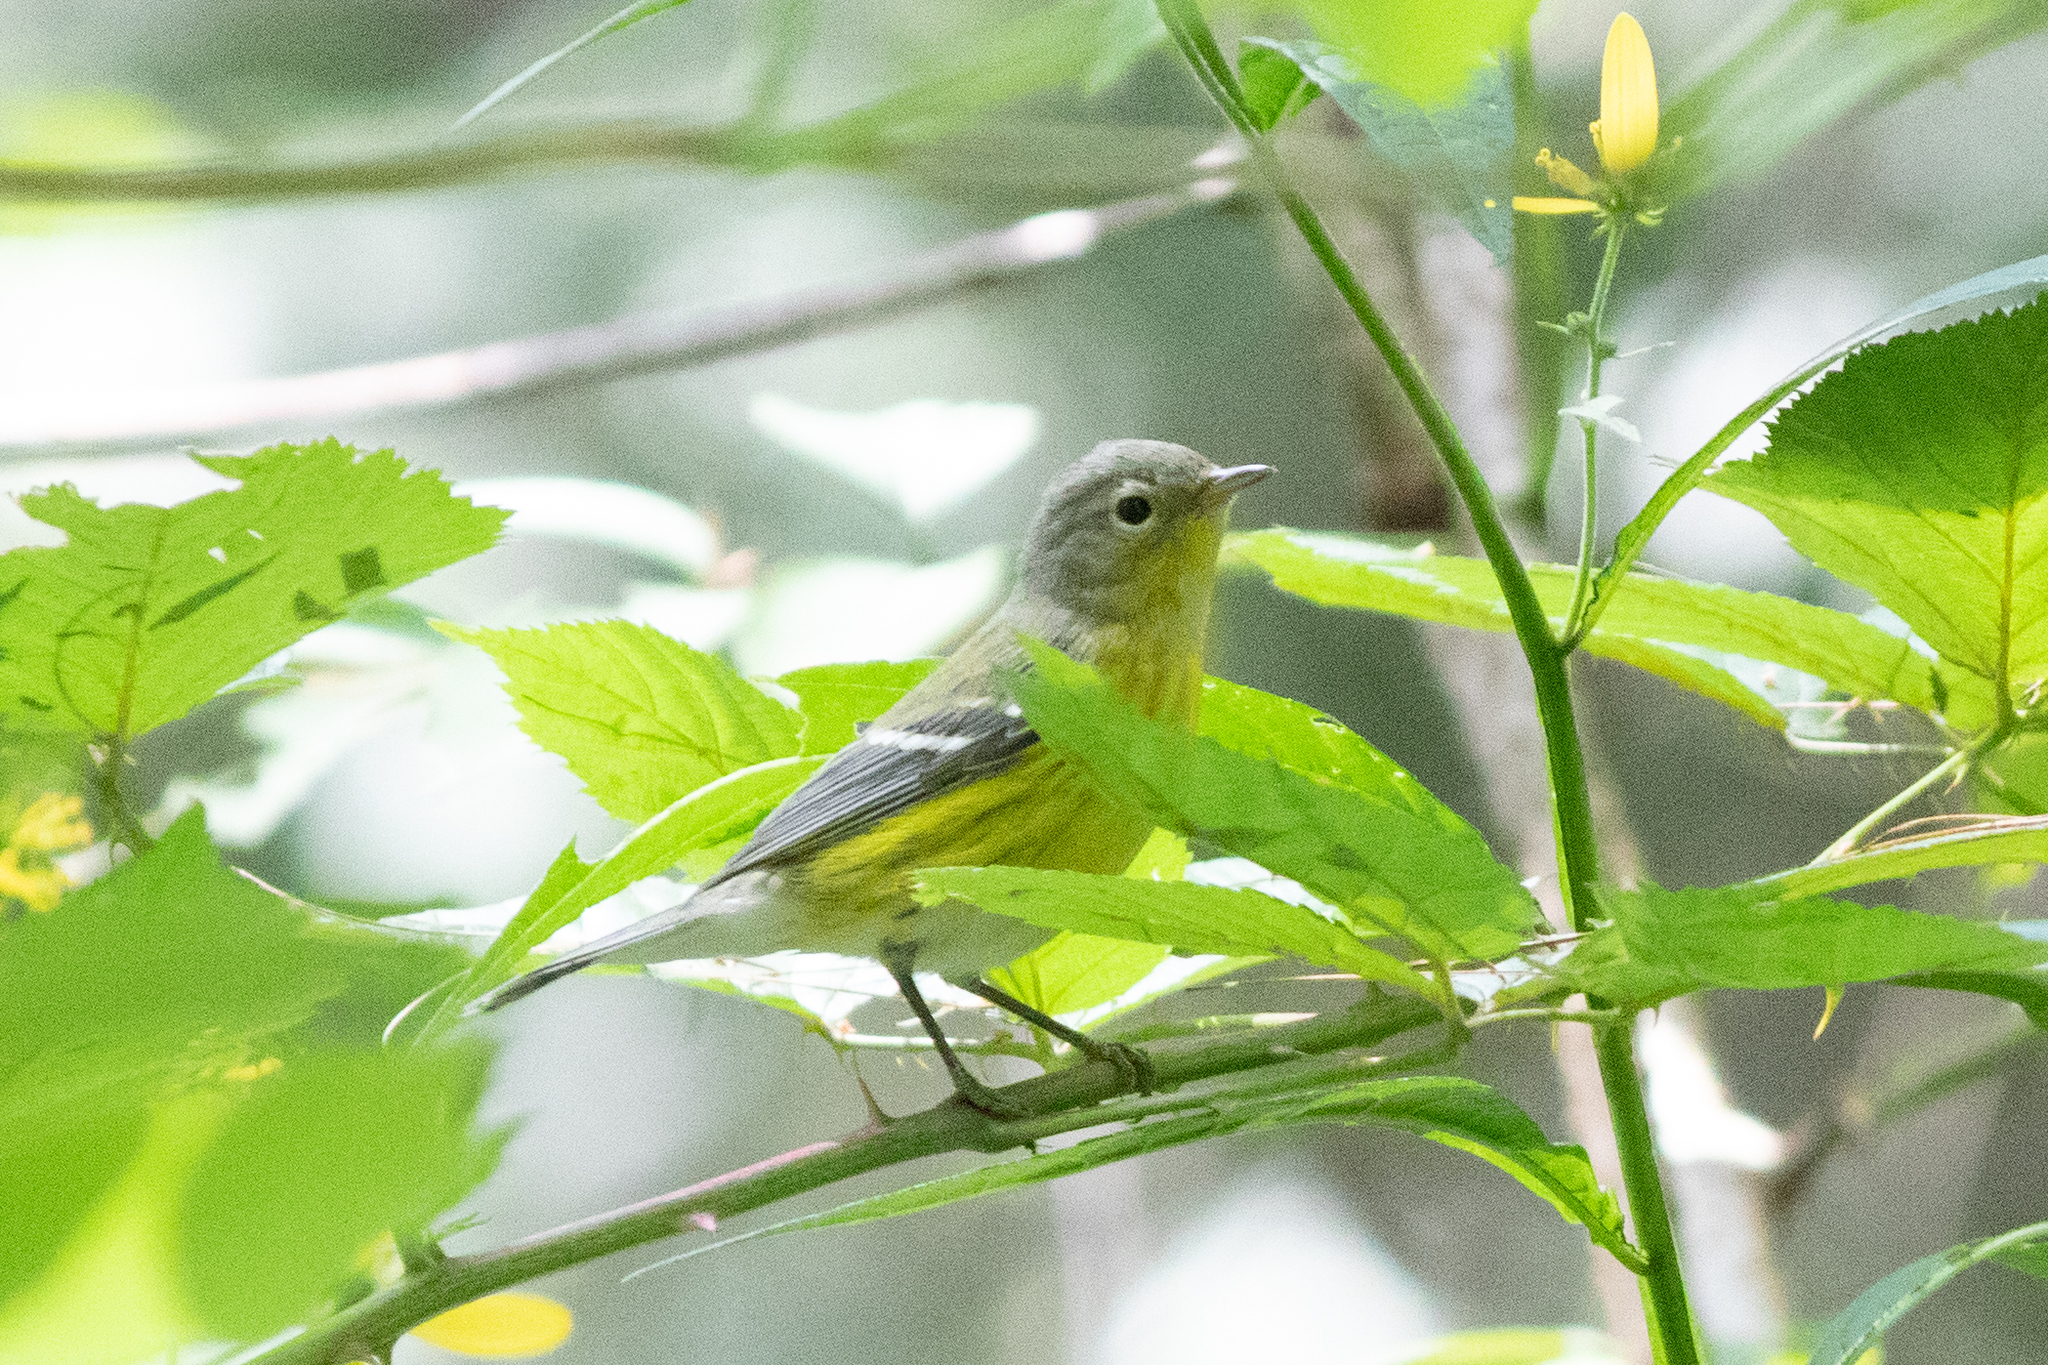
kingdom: Animalia
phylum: Chordata
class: Aves
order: Passeriformes
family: Parulidae
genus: Setophaga
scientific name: Setophaga magnolia
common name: Magnolia warbler
